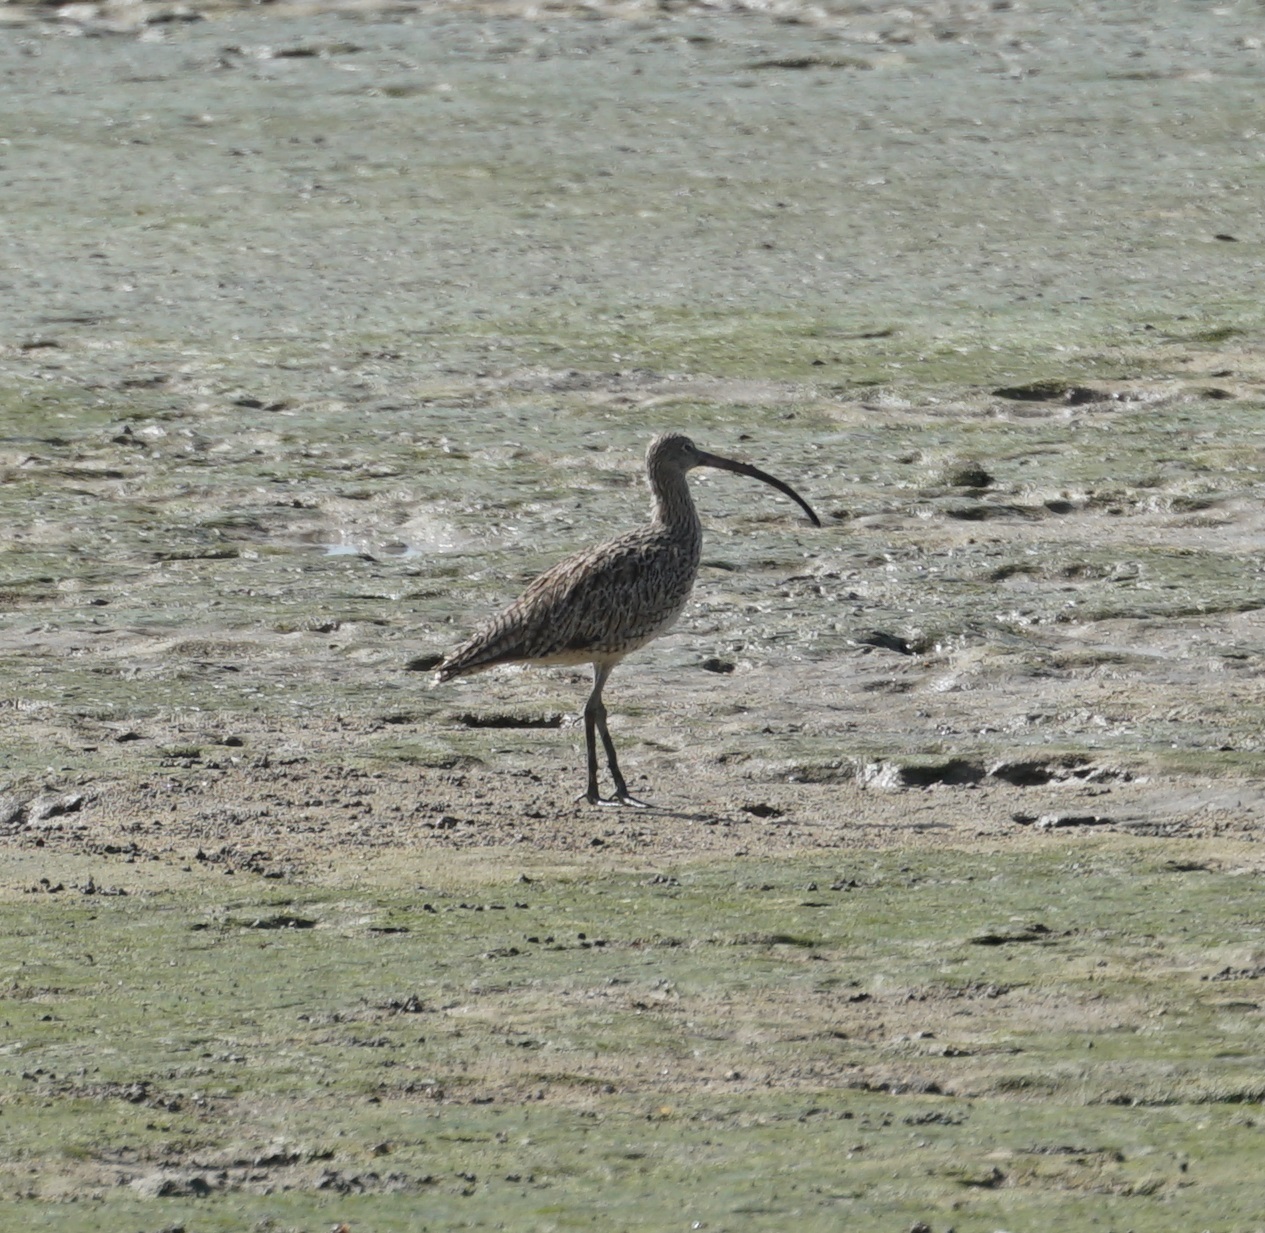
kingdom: Animalia
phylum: Chordata
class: Aves
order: Charadriiformes
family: Scolopacidae
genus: Numenius
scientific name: Numenius madagascariensis
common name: Far eastern curlew
